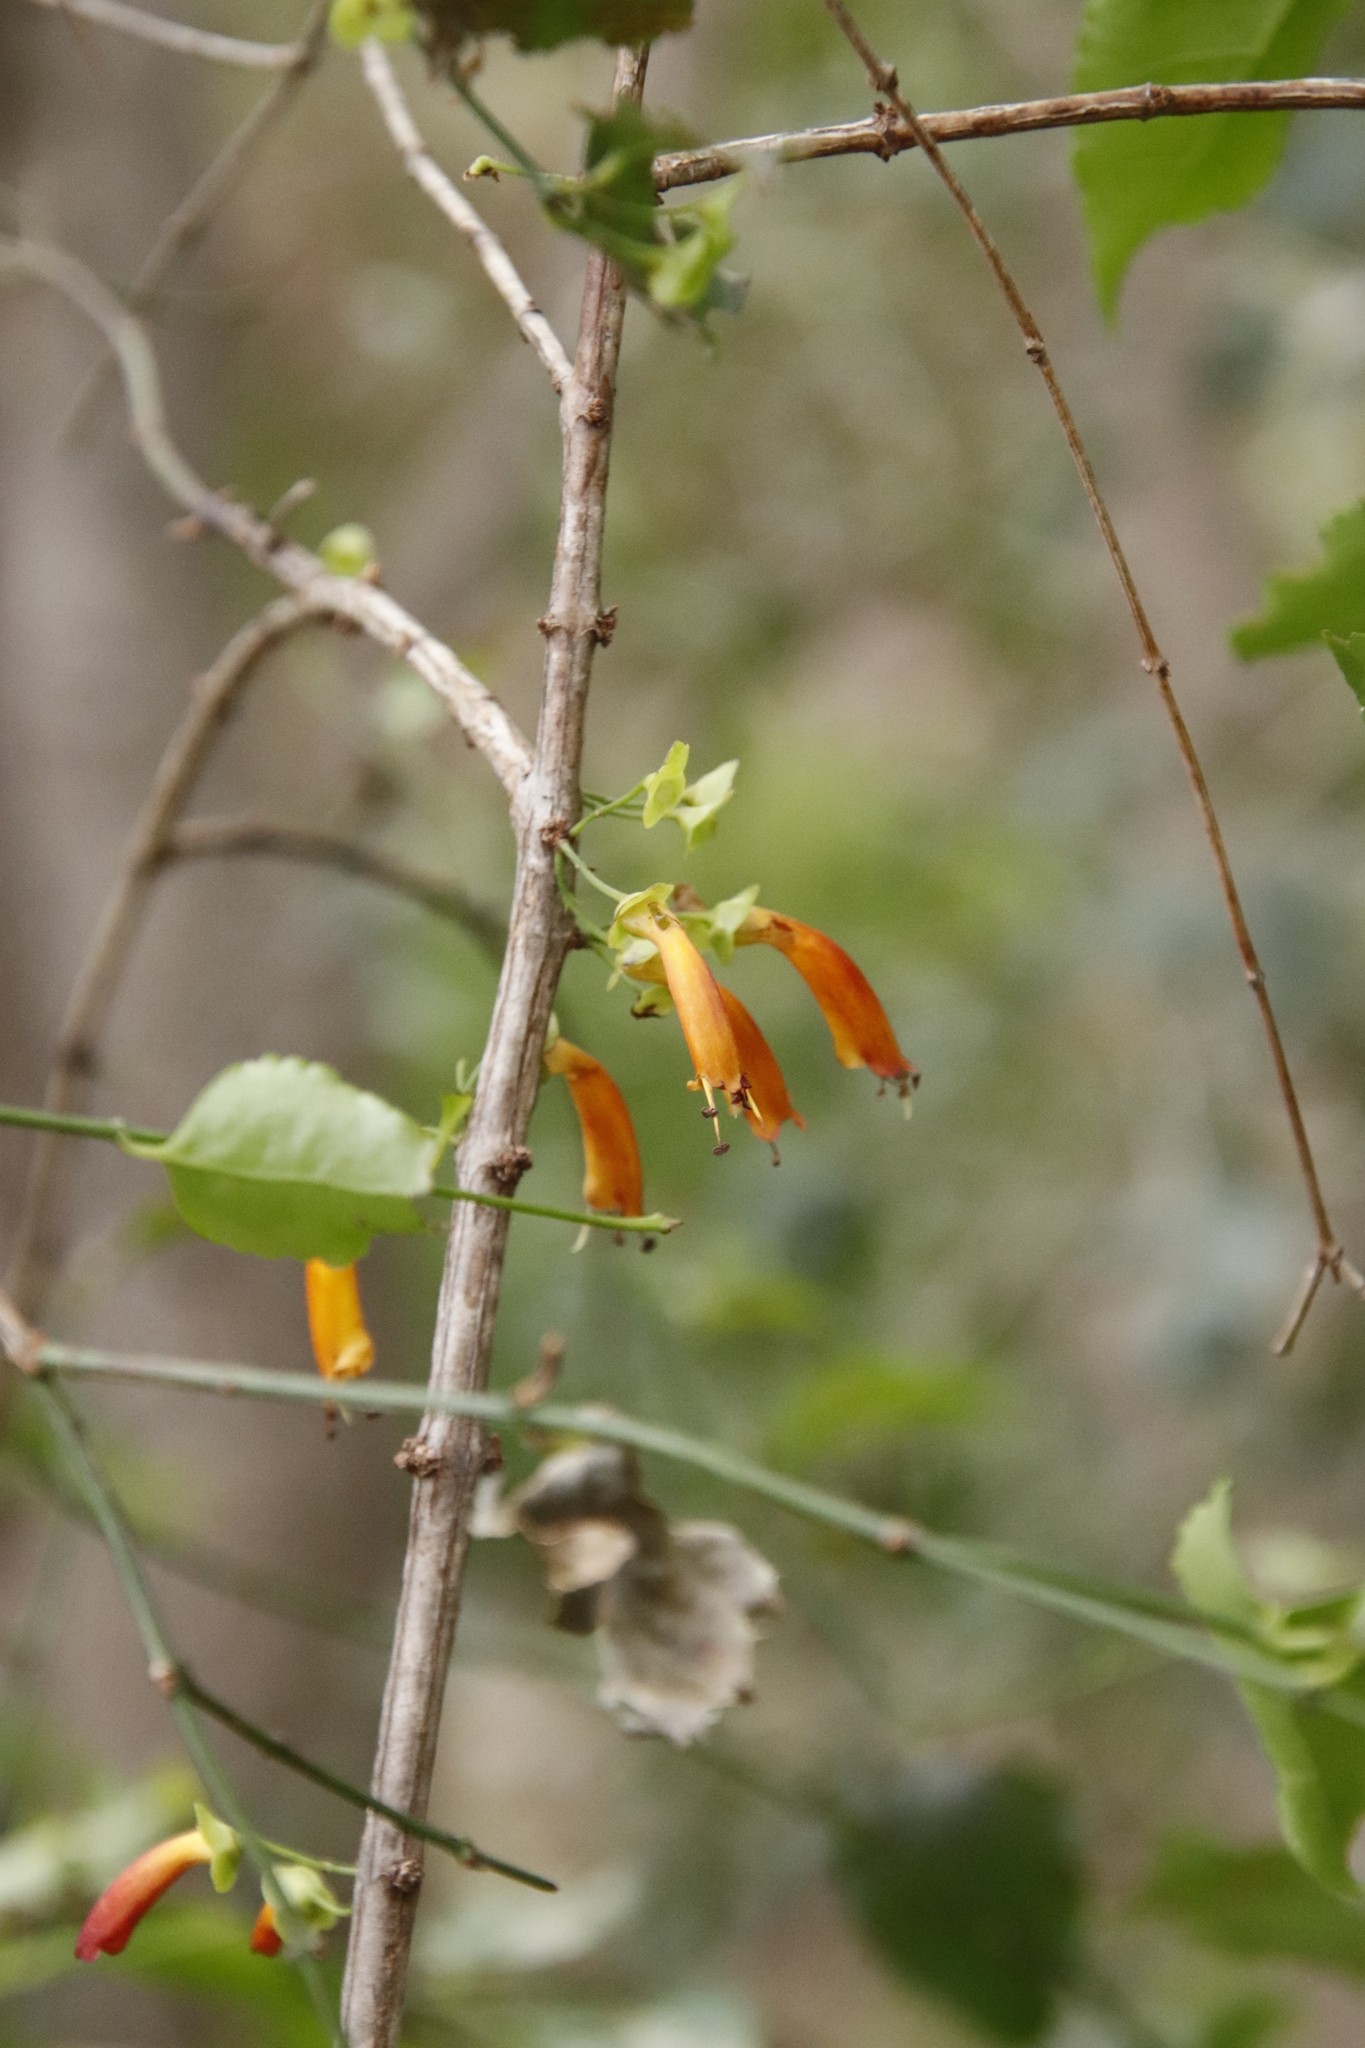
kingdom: Plantae
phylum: Tracheophyta
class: Magnoliopsida
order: Lamiales
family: Stilbaceae
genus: Halleria
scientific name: Halleria lucida
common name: Tree fuschia
